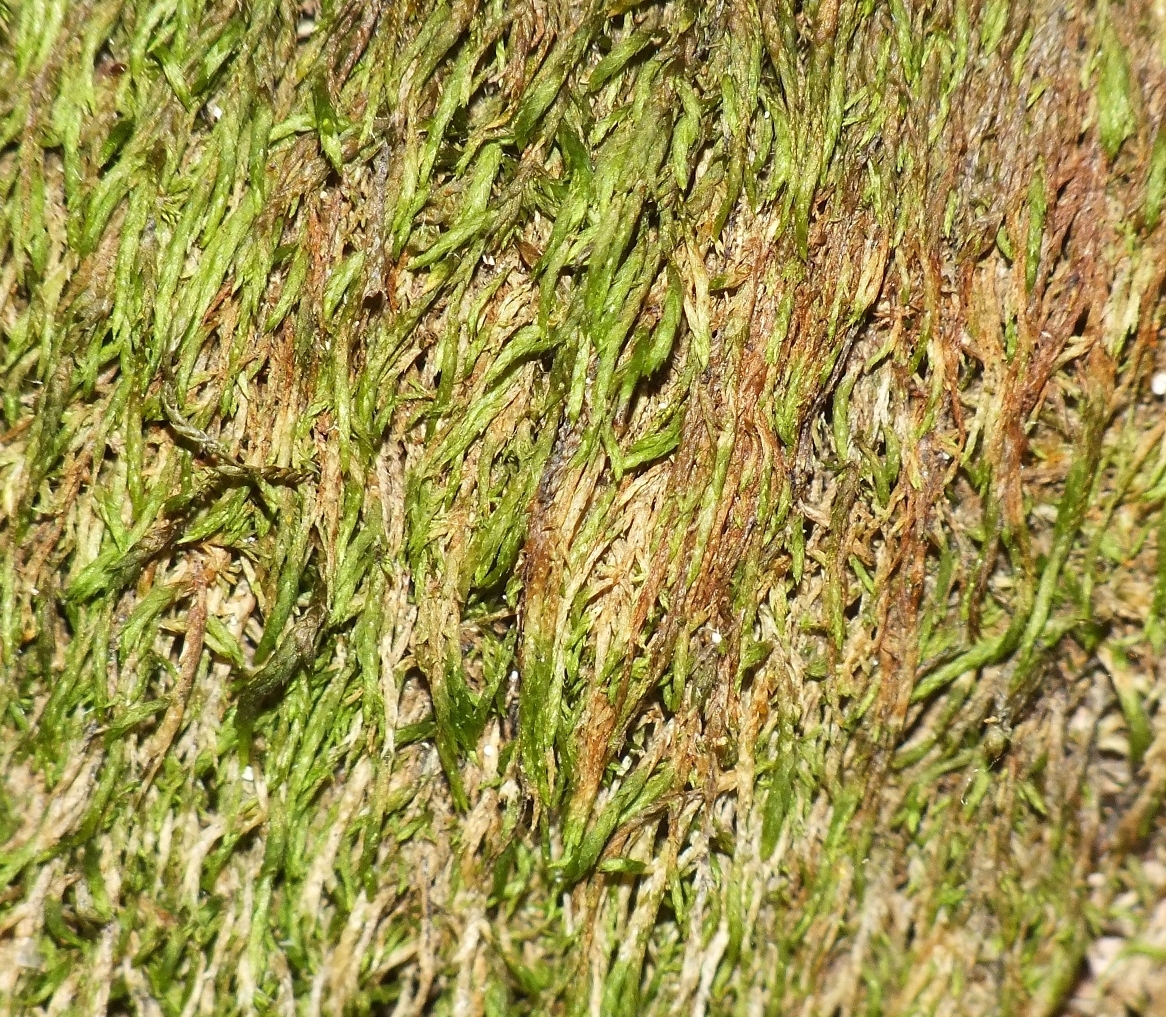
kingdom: Plantae
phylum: Bryophyta
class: Bryopsida
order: Hypnales
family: Pterigynandraceae
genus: Pterigynandrum
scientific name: Pterigynandrum filiforme
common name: Capillary wing moss
